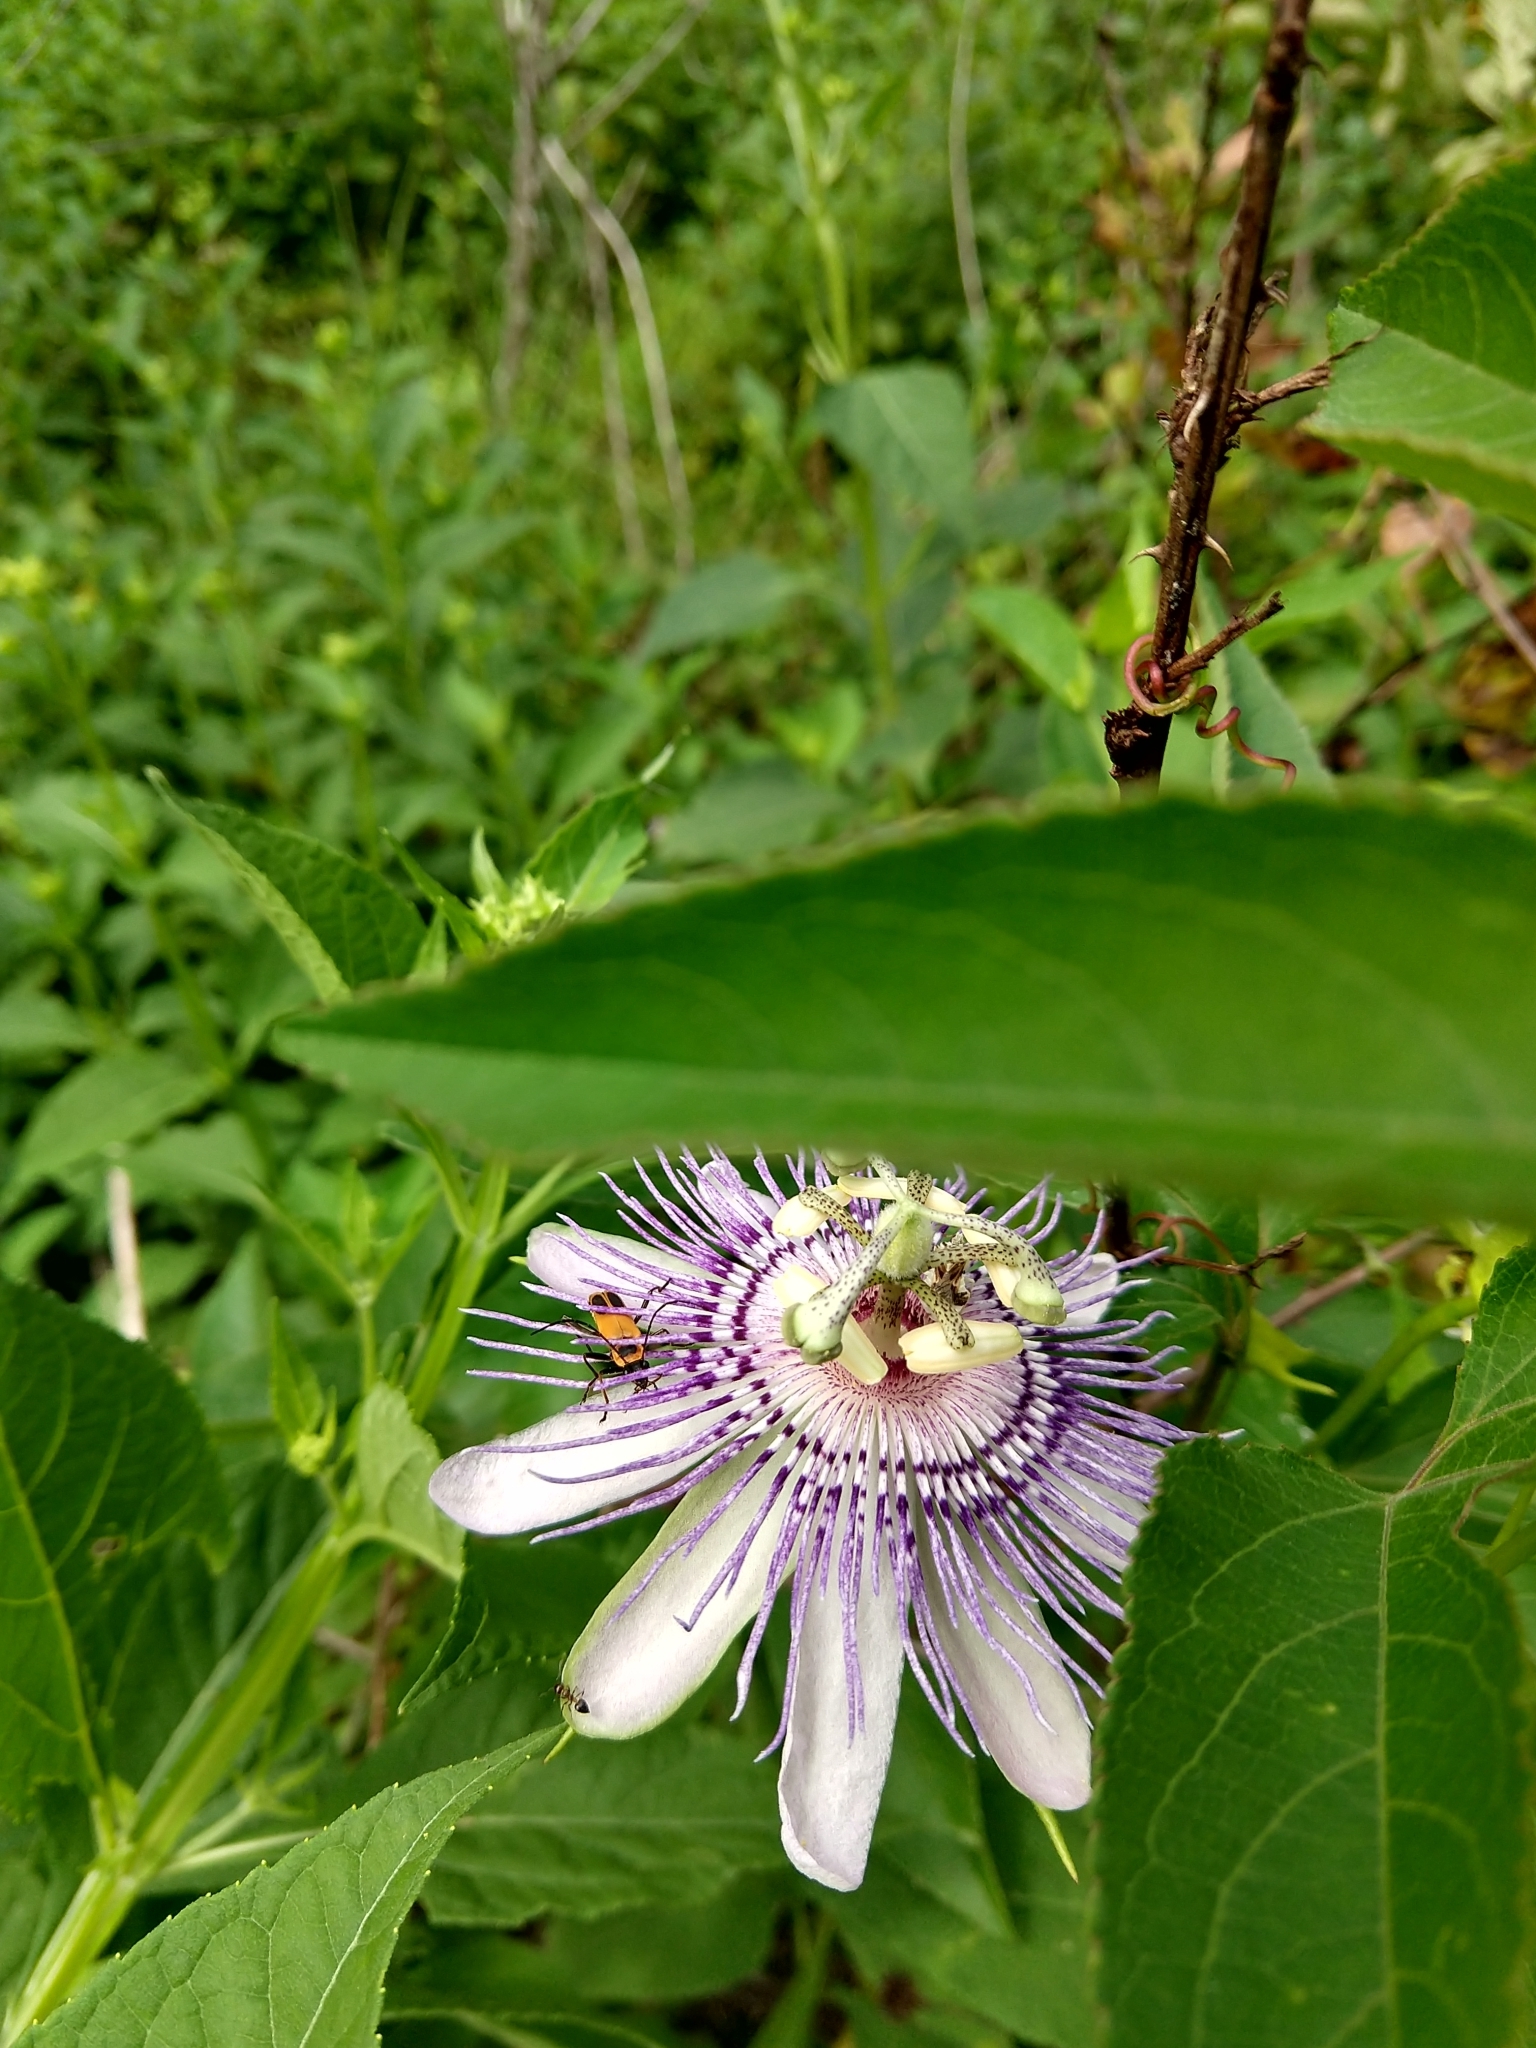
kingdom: Plantae
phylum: Tracheophyta
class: Magnoliopsida
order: Malpighiales
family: Passifloraceae
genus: Passiflora
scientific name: Passiflora incarnata
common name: Apricot-vine
